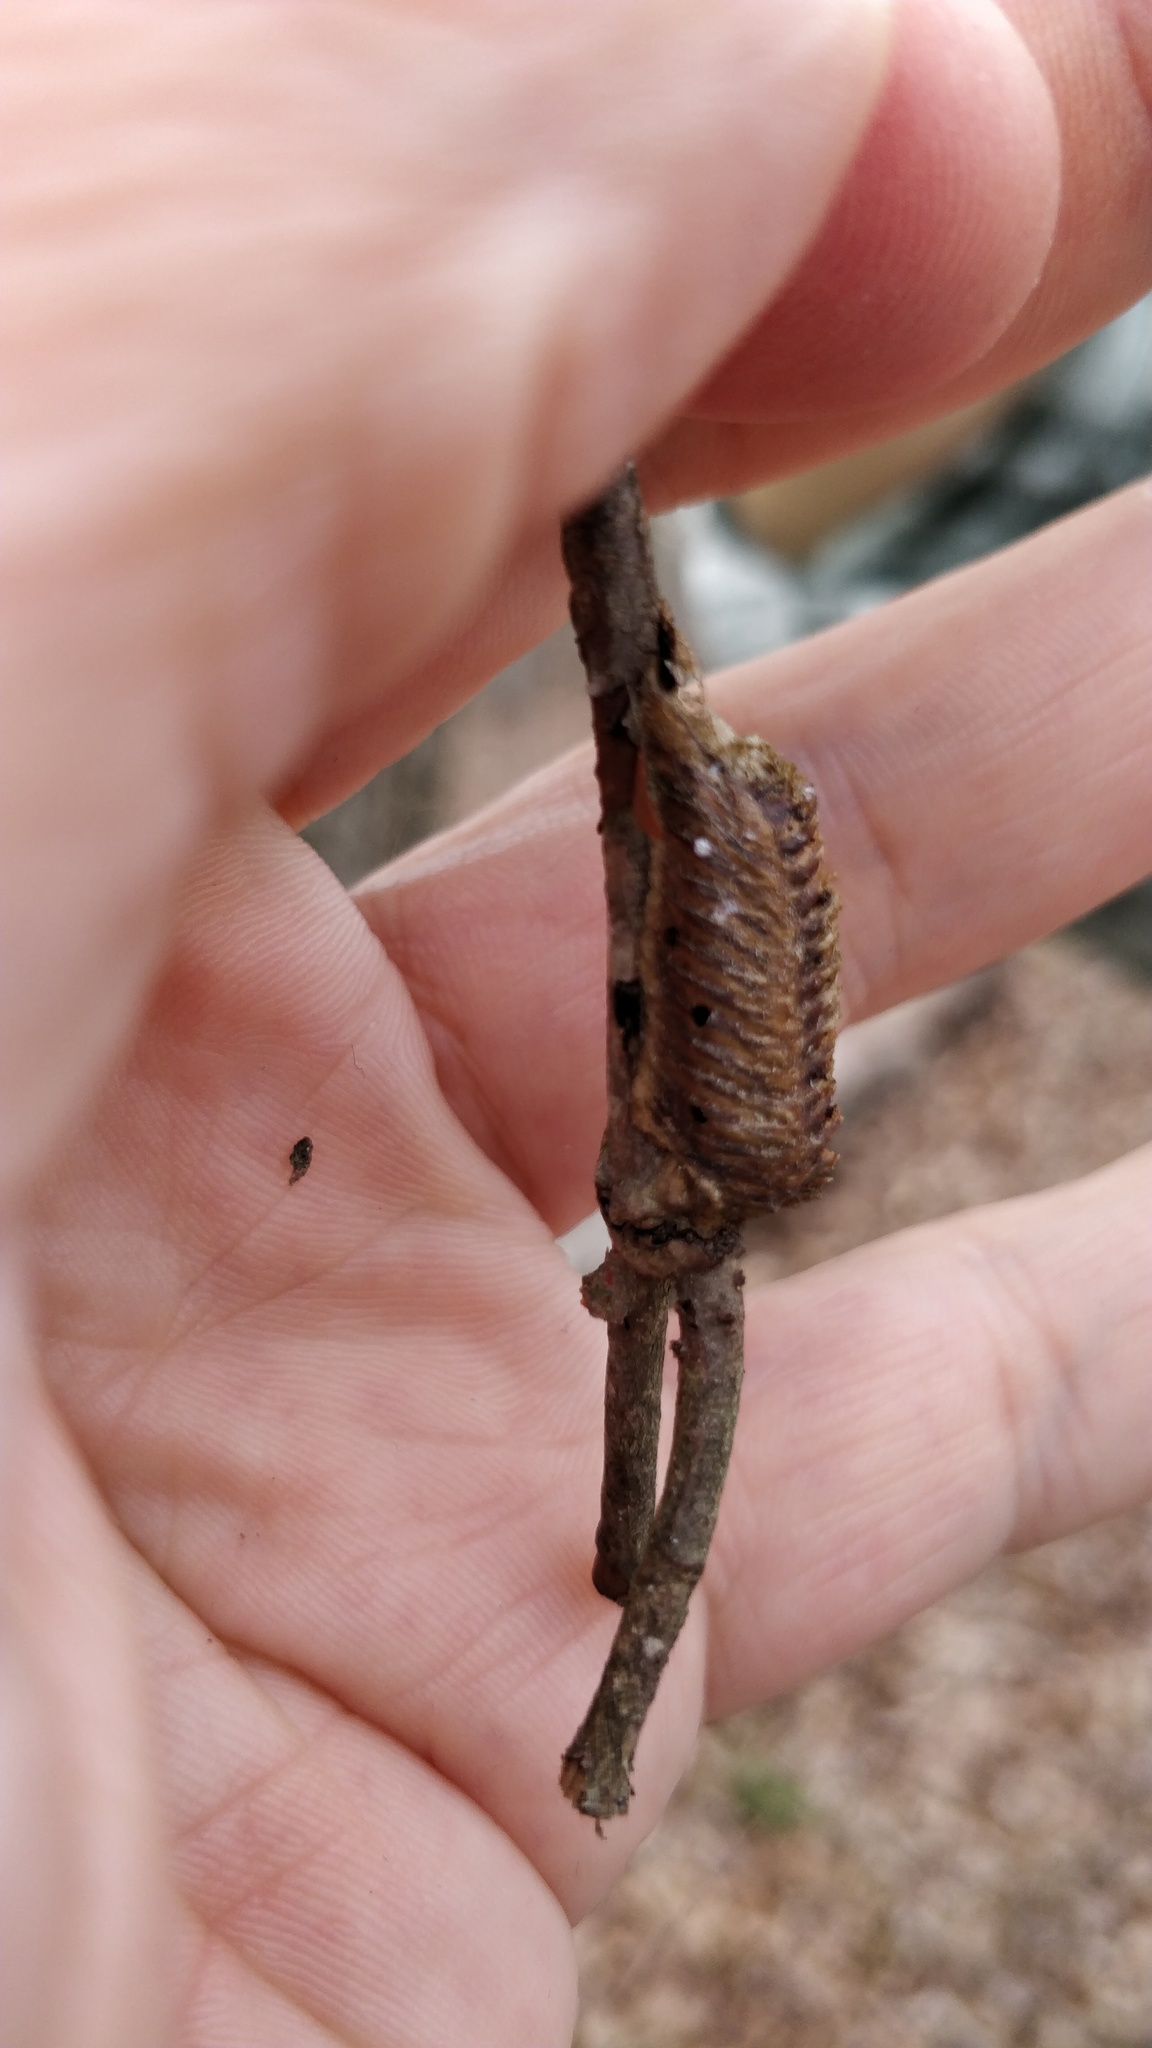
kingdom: Animalia
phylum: Arthropoda
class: Insecta
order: Mantodea
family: Mantidae
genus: Stagmomantis
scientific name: Stagmomantis carolina
